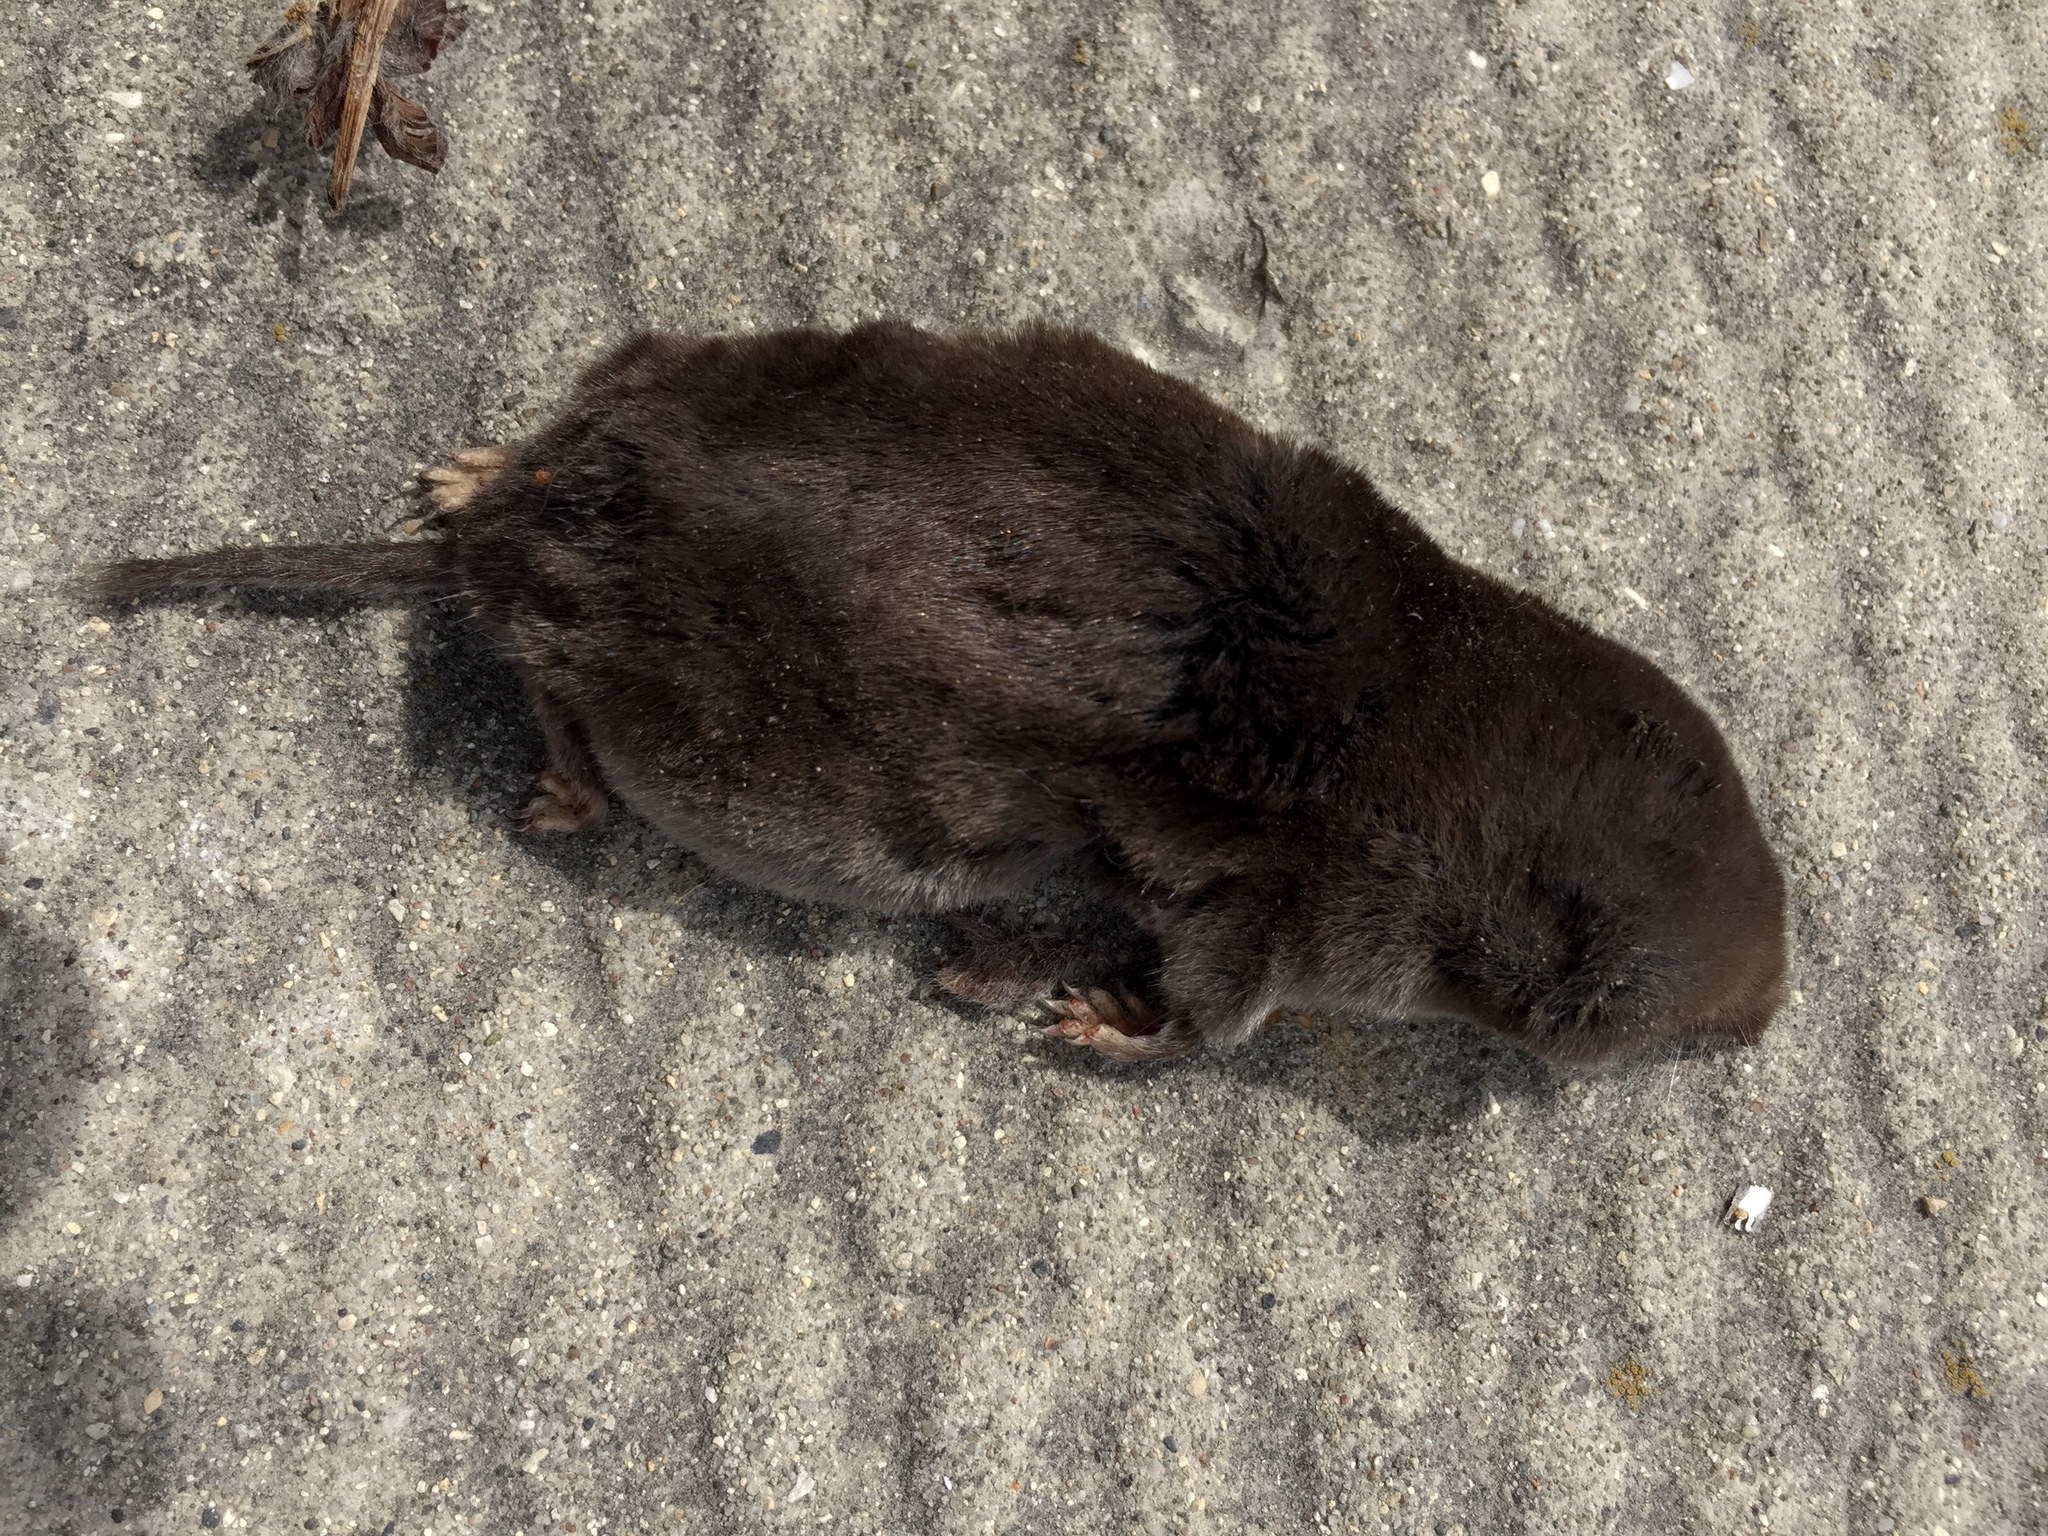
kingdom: Animalia
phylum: Chordata
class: Mammalia
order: Soricomorpha
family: Soricidae
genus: Blarina
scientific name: Blarina brevicauda
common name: Northern short-tailed shrew
